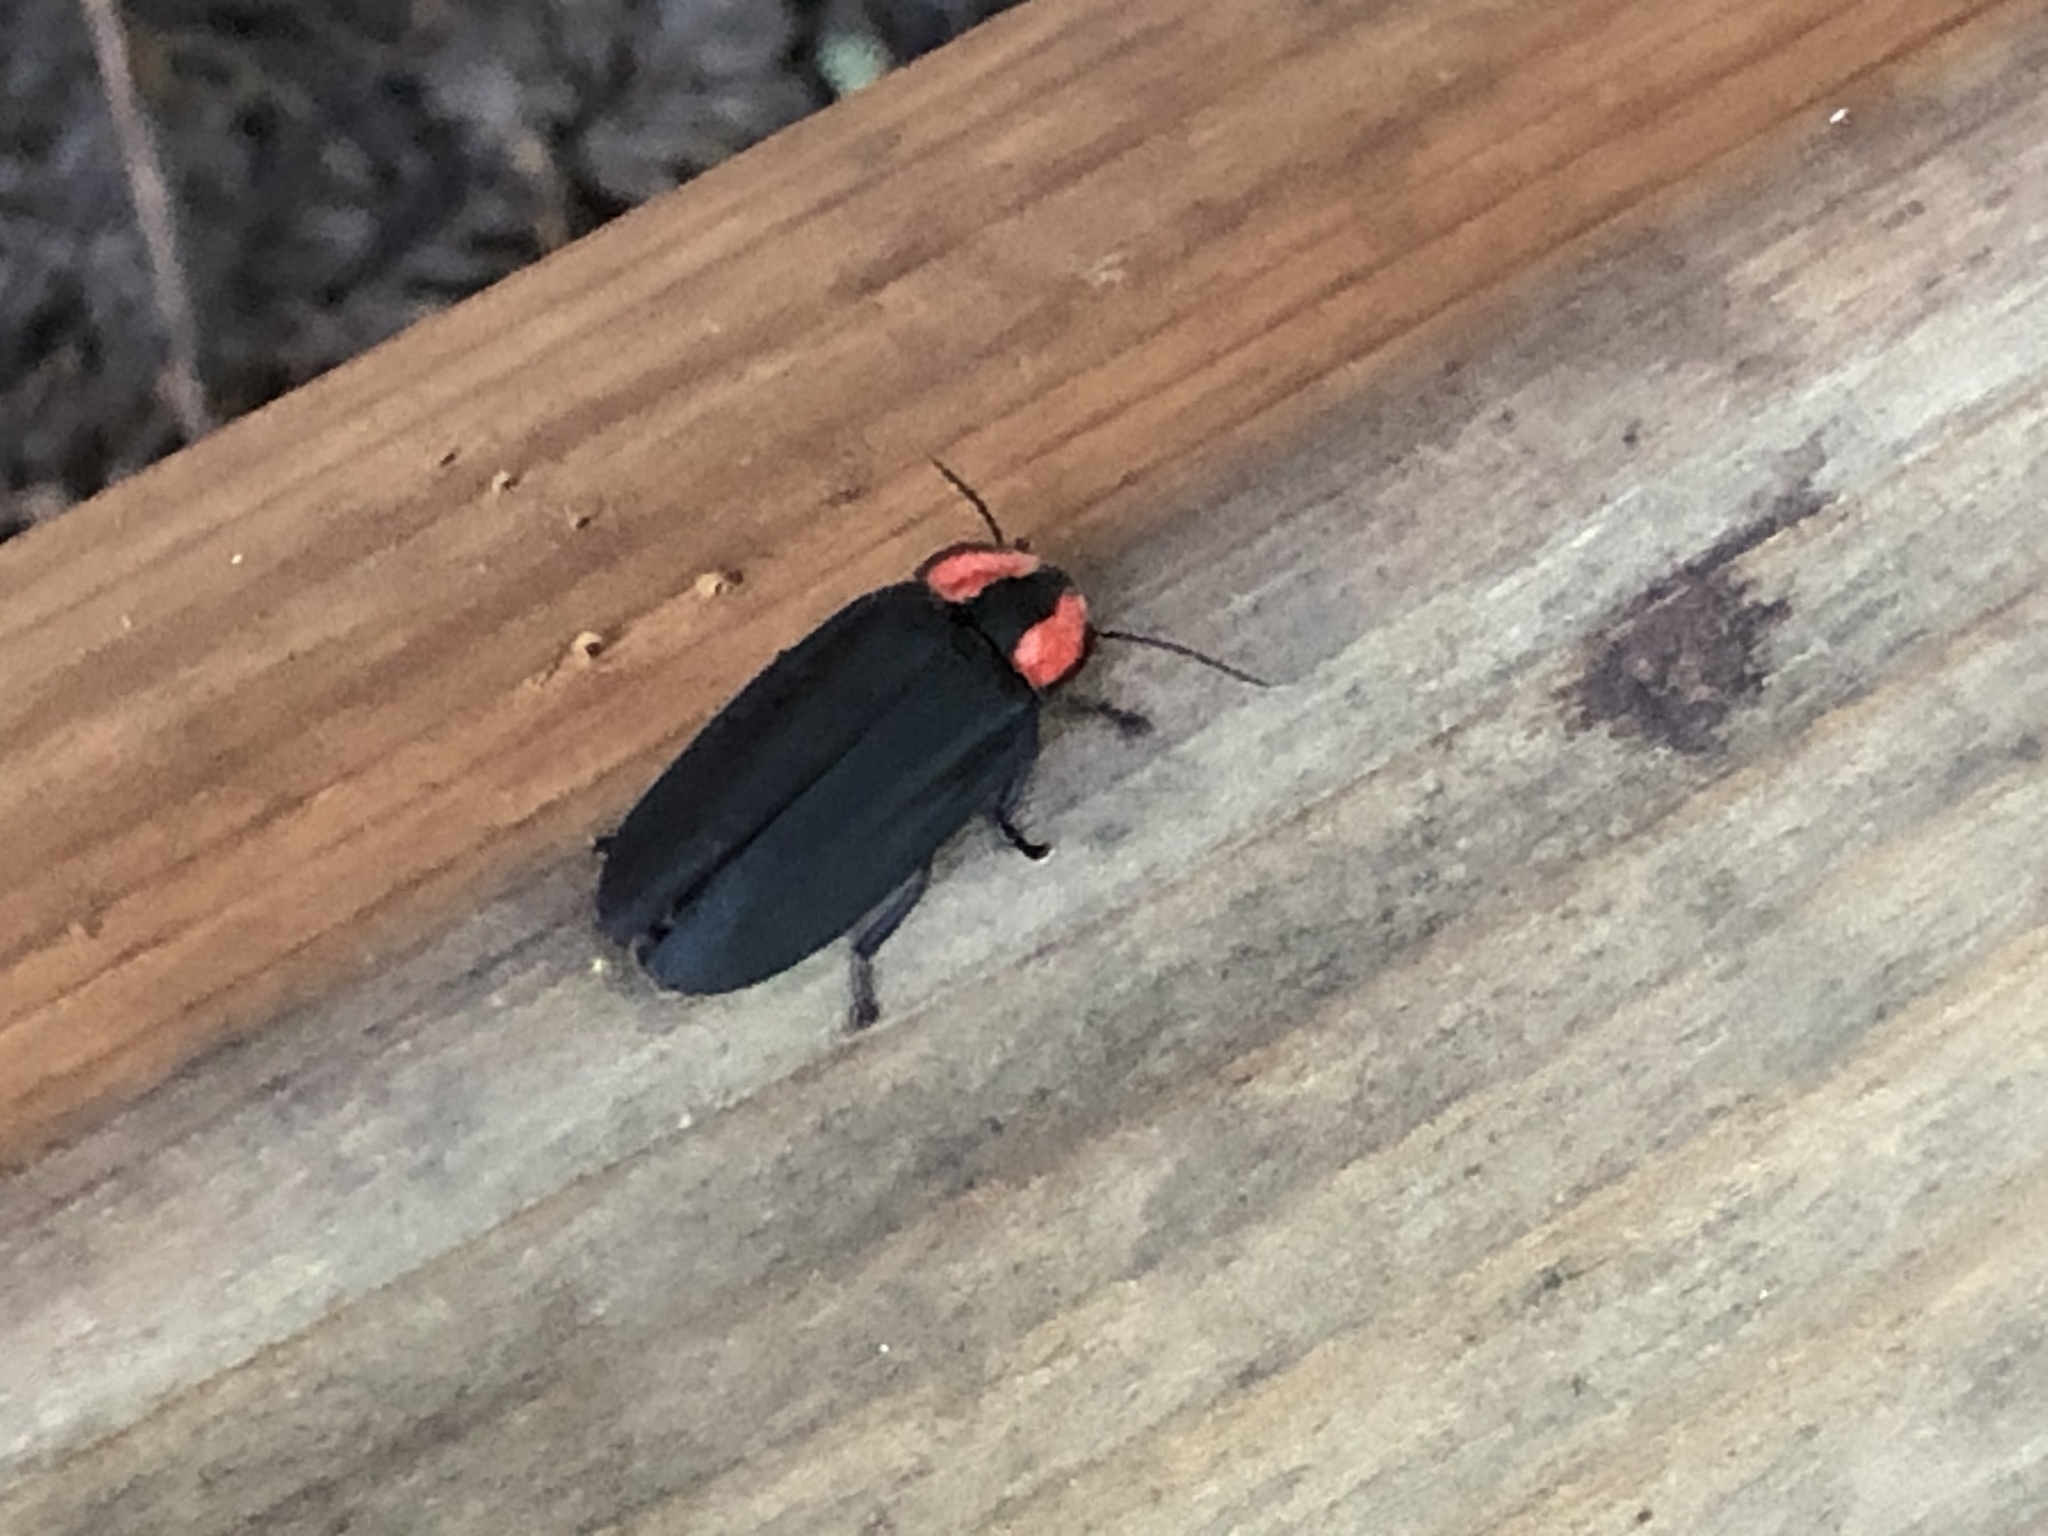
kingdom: Animalia
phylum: Arthropoda
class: Insecta
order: Coleoptera
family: Lampyridae
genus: Photinus
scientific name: Photinus californica
